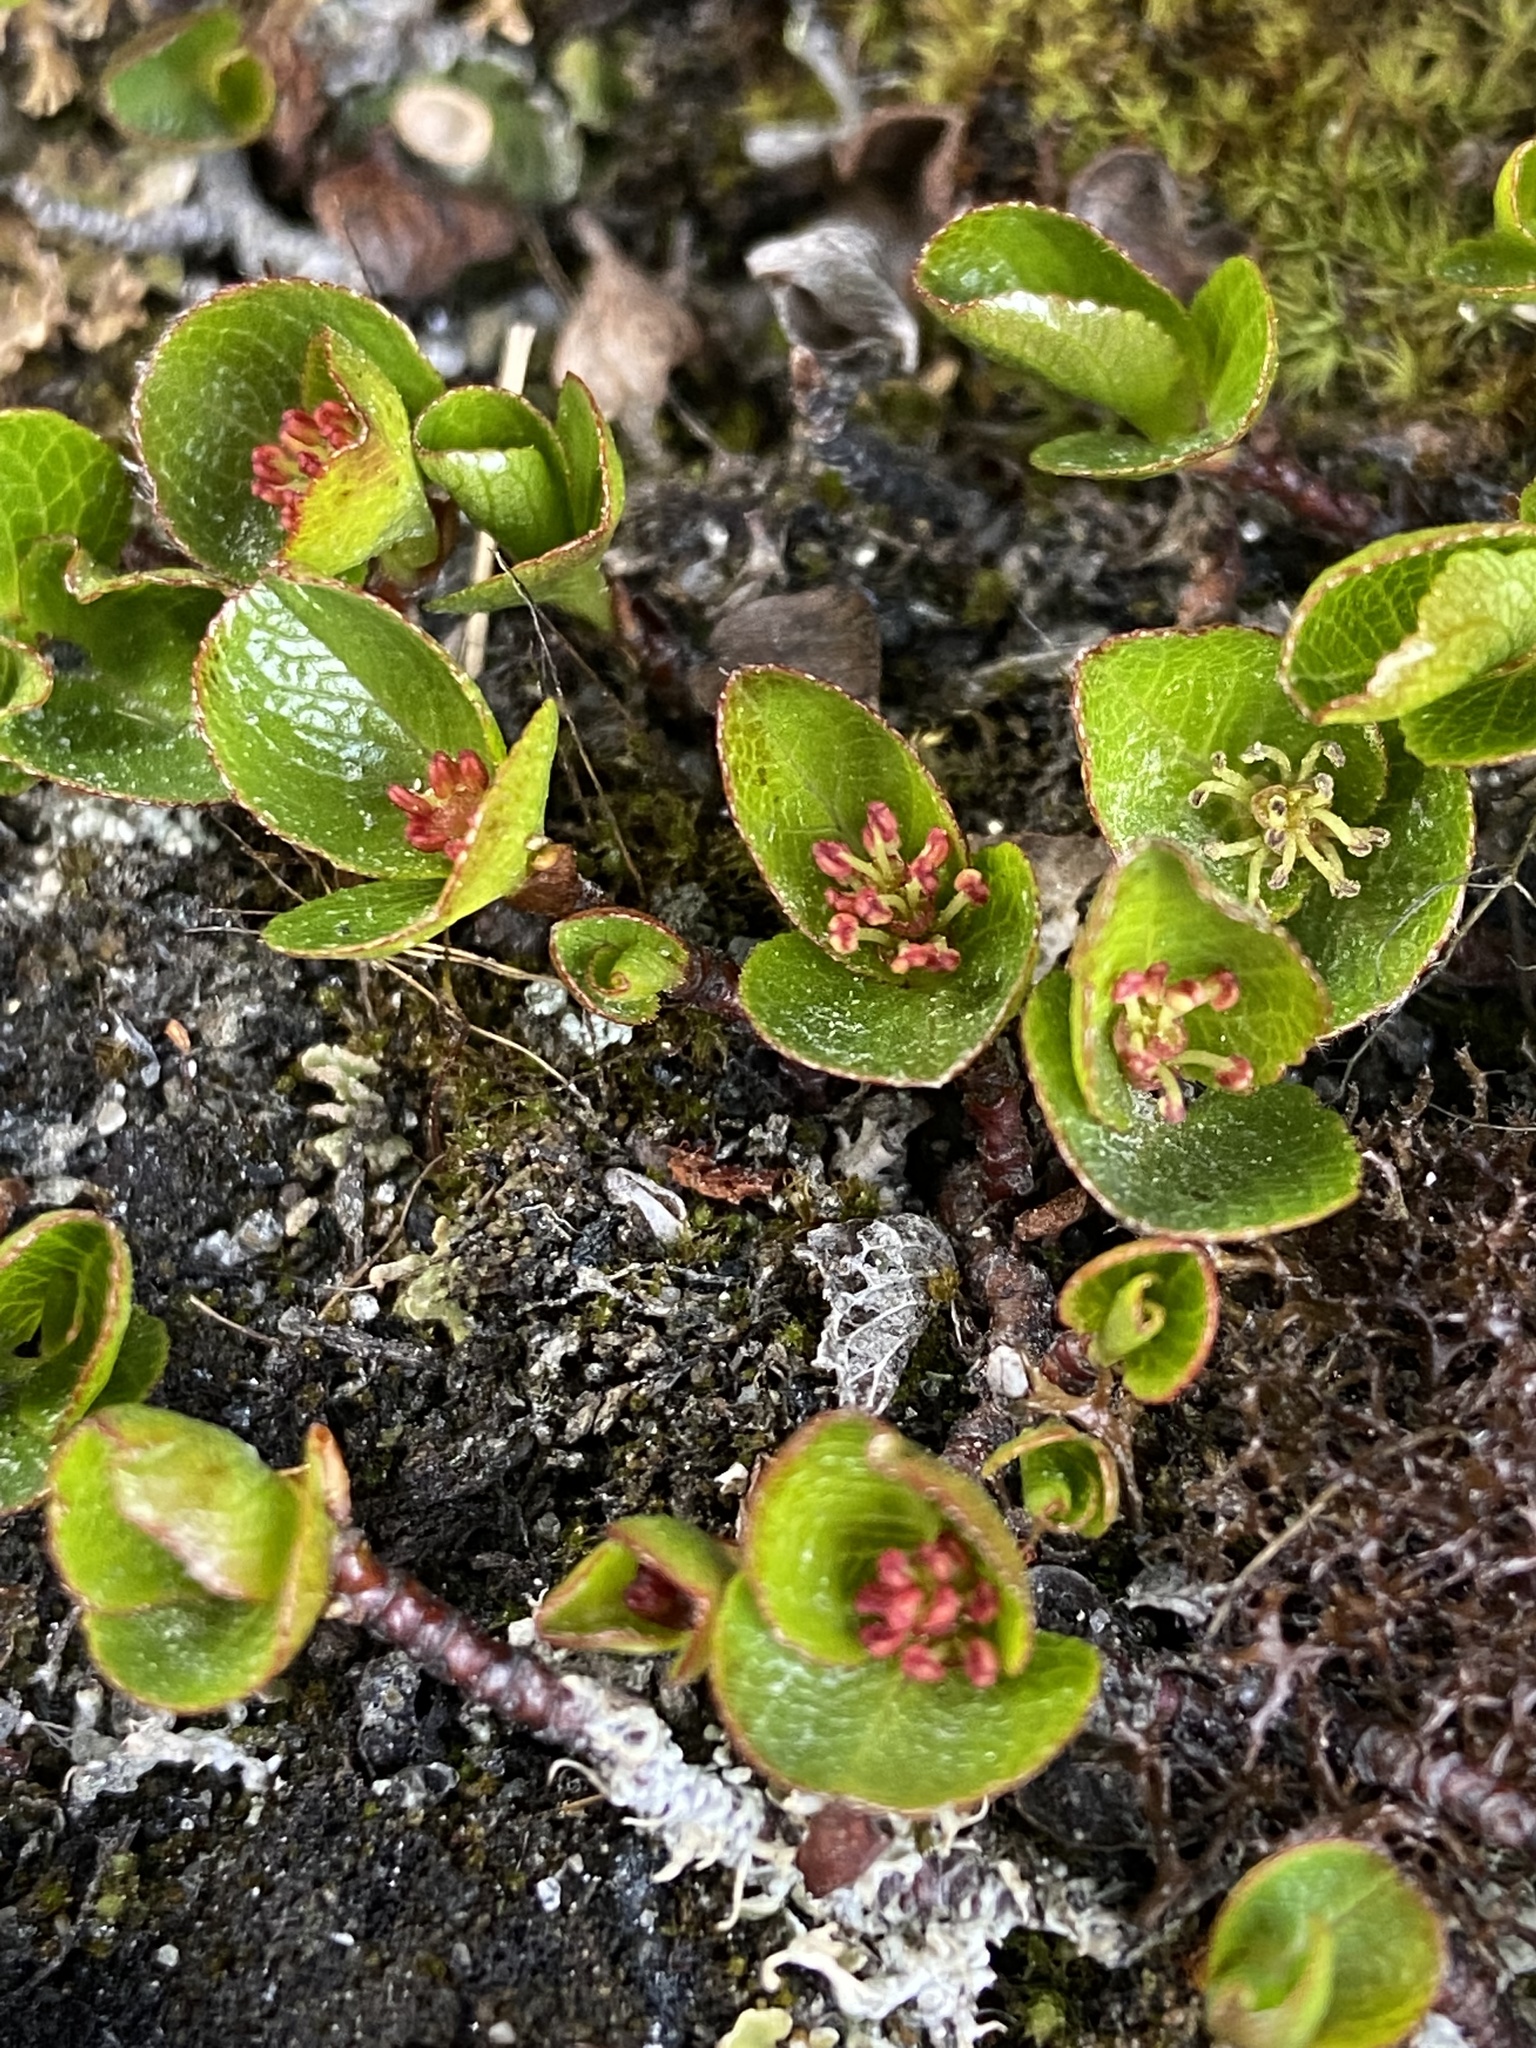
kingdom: Plantae
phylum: Tracheophyta
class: Magnoliopsida
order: Malpighiales
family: Salicaceae
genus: Salix
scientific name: Salix herbacea
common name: Dwarf willow
